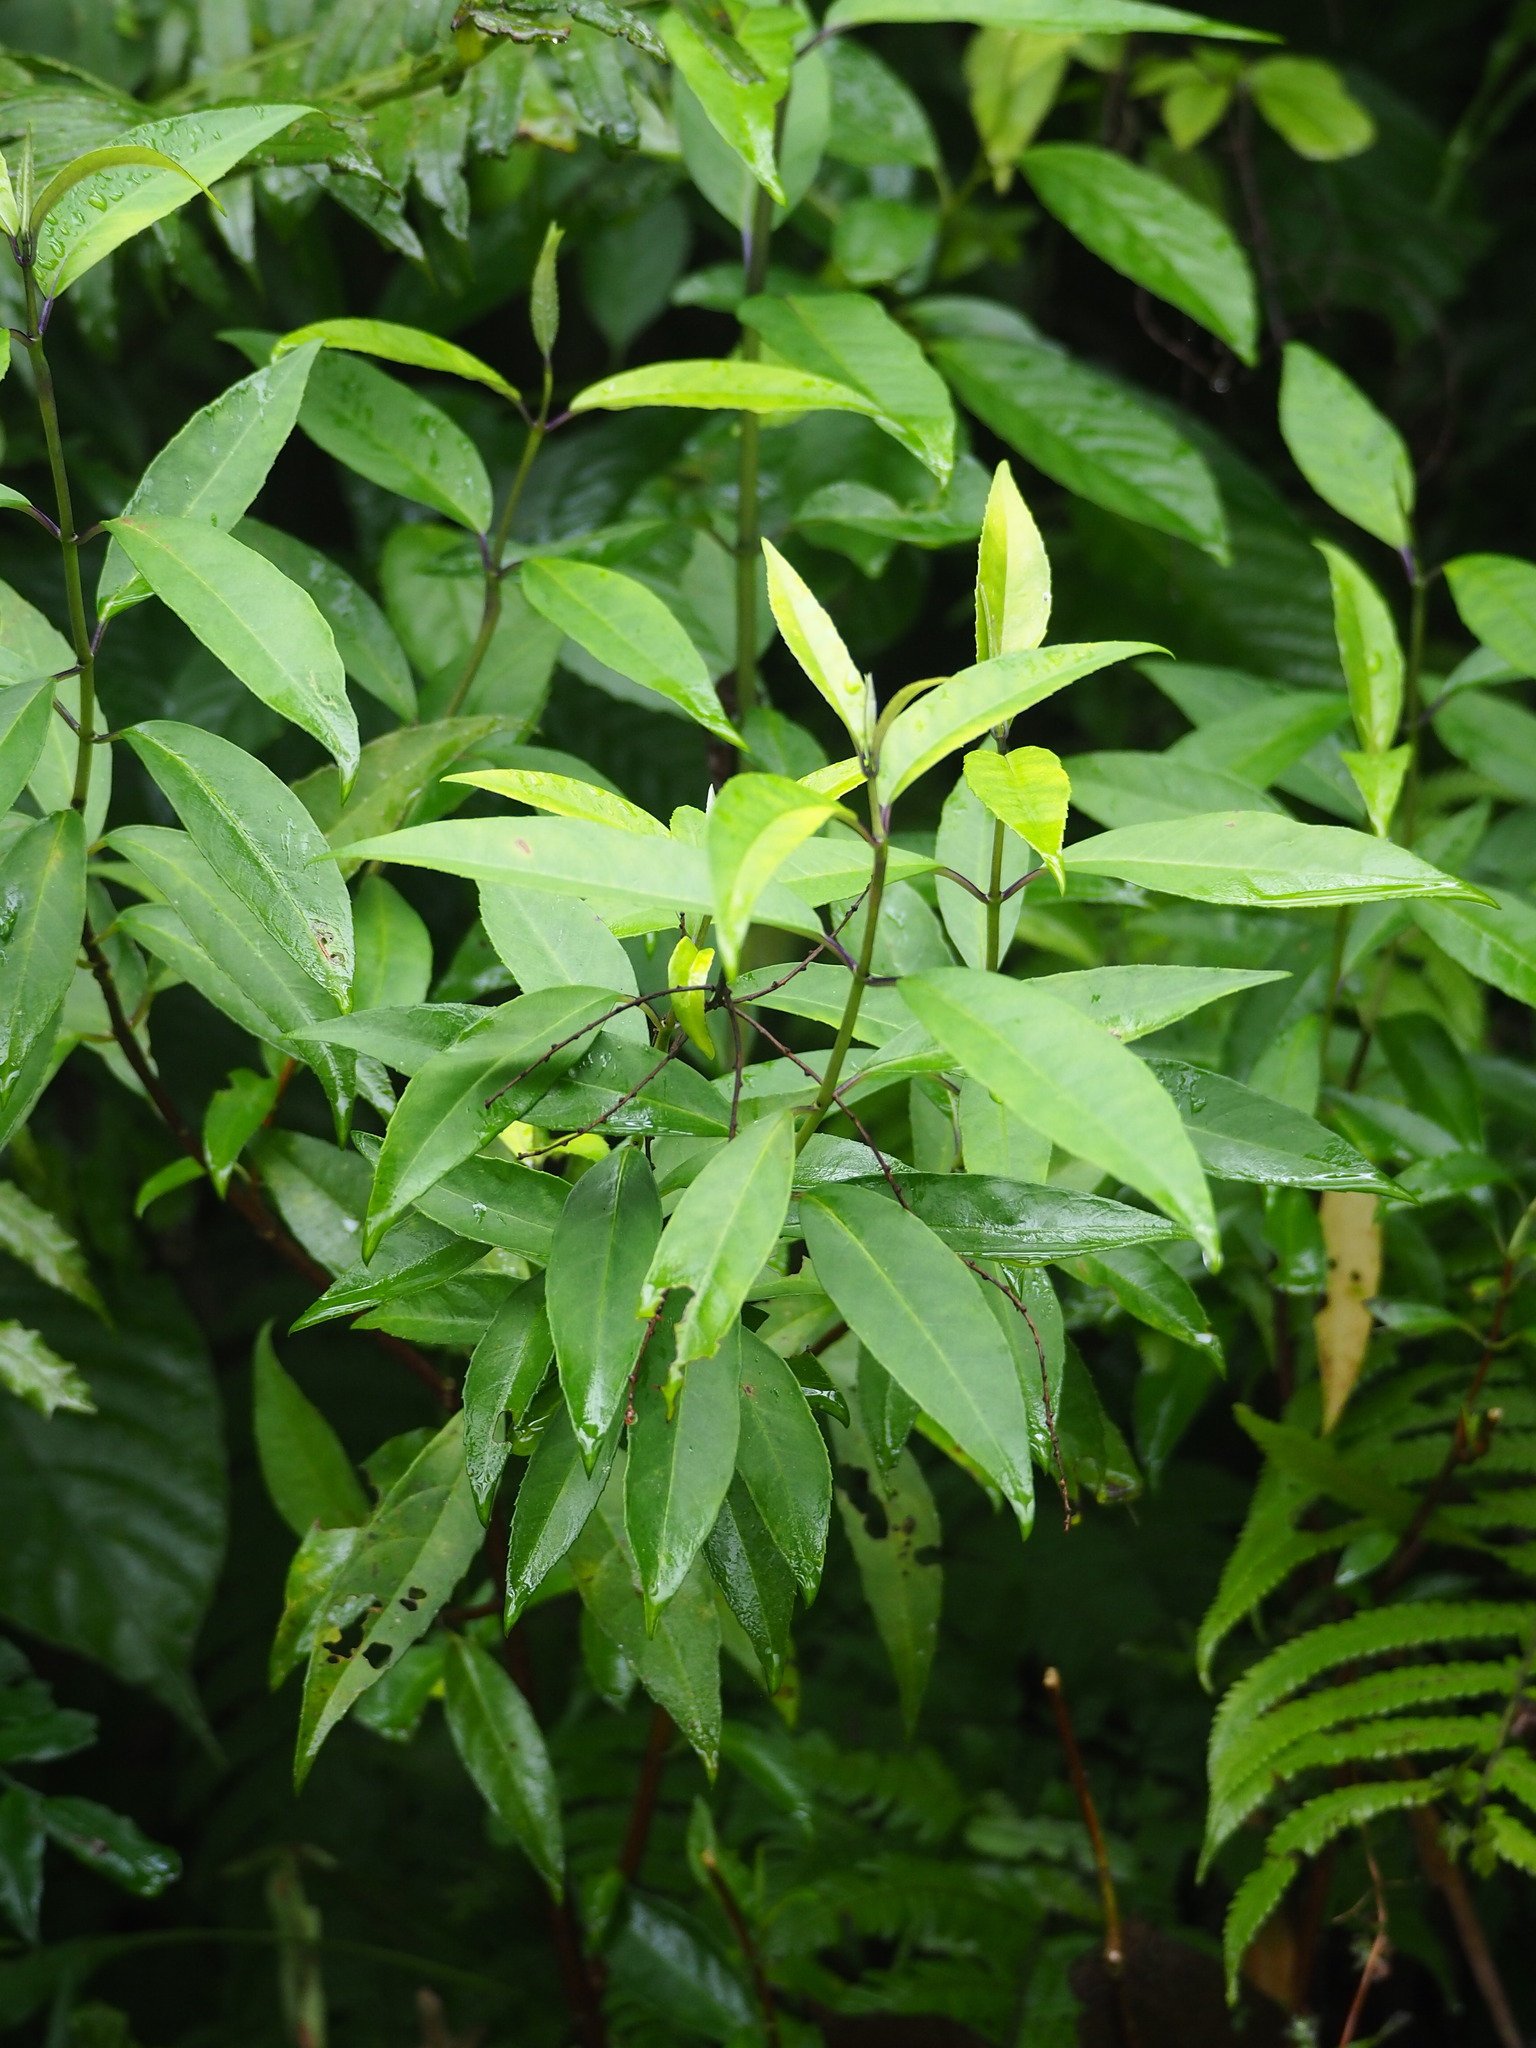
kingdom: Plantae
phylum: Tracheophyta
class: Magnoliopsida
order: Cornales
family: Hydrangeaceae
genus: Hydrangea
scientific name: Hydrangea chinensis
